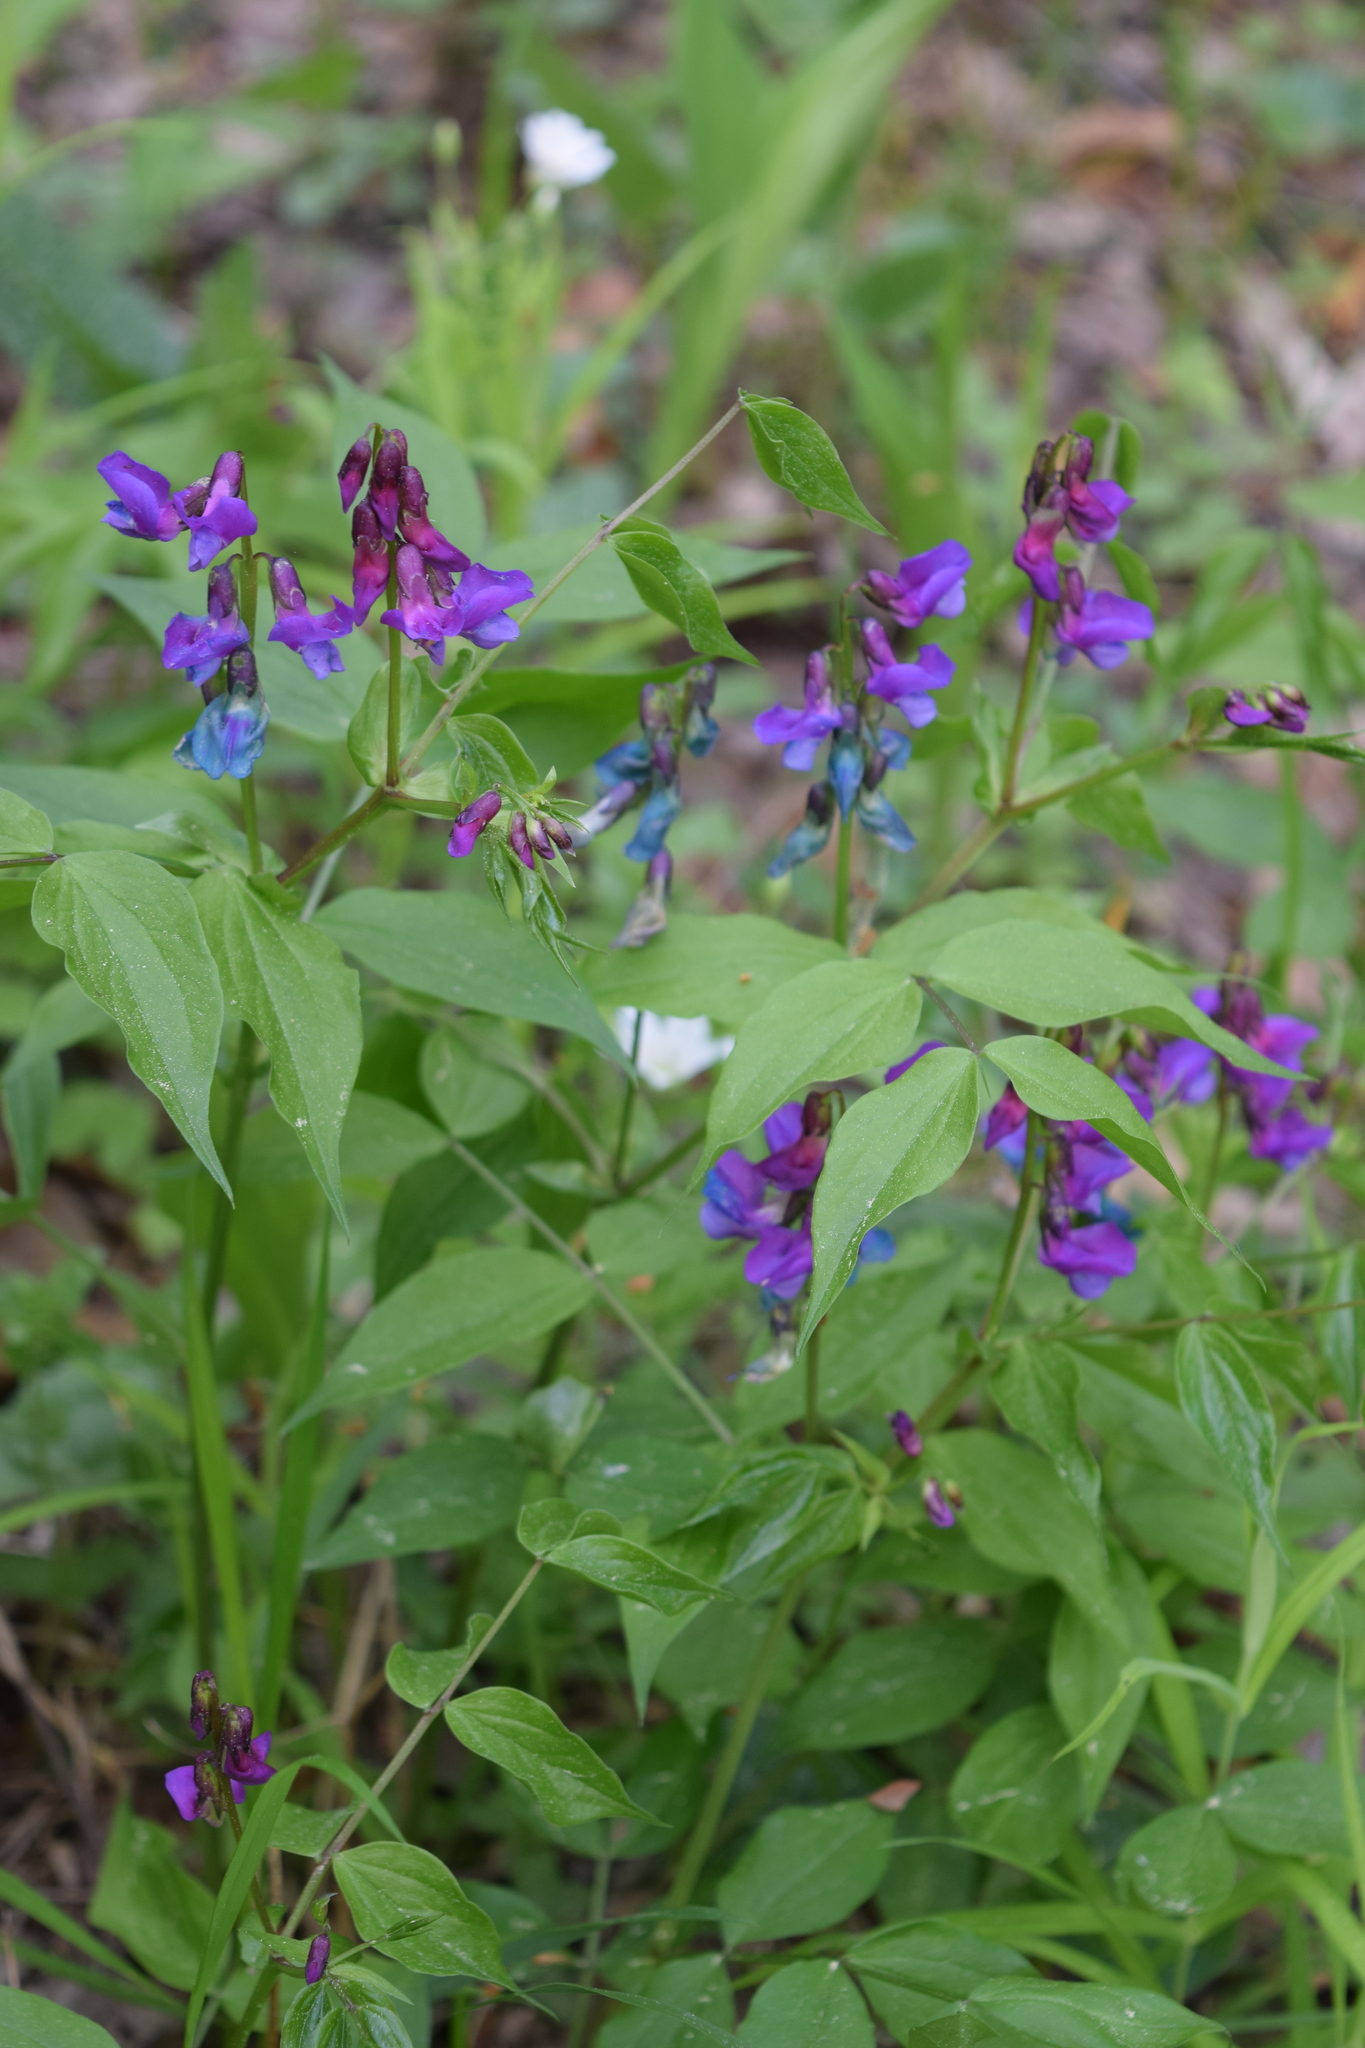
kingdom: Plantae
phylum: Tracheophyta
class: Magnoliopsida
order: Fabales
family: Fabaceae
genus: Lathyrus
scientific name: Lathyrus vernus
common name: Spring pea
